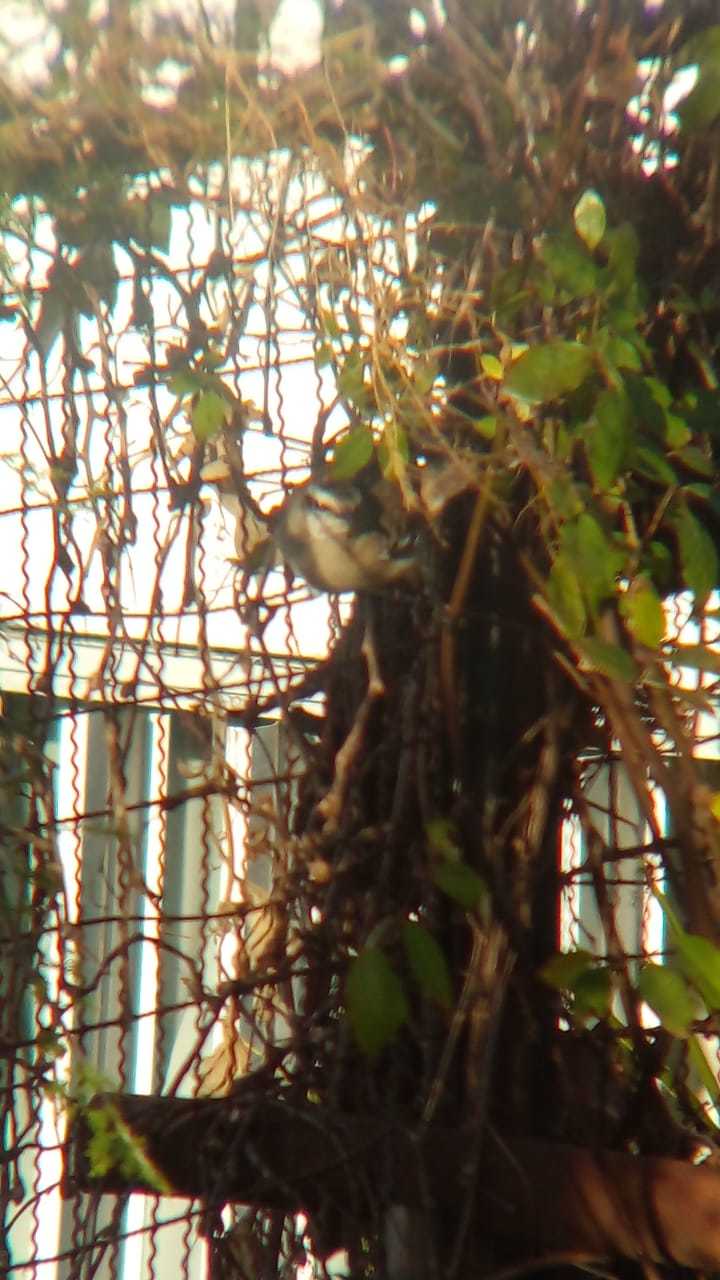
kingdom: Animalia
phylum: Chordata
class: Aves
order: Passeriformes
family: Mimidae
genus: Mimus
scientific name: Mimus saturninus
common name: Chalk-browed mockingbird
